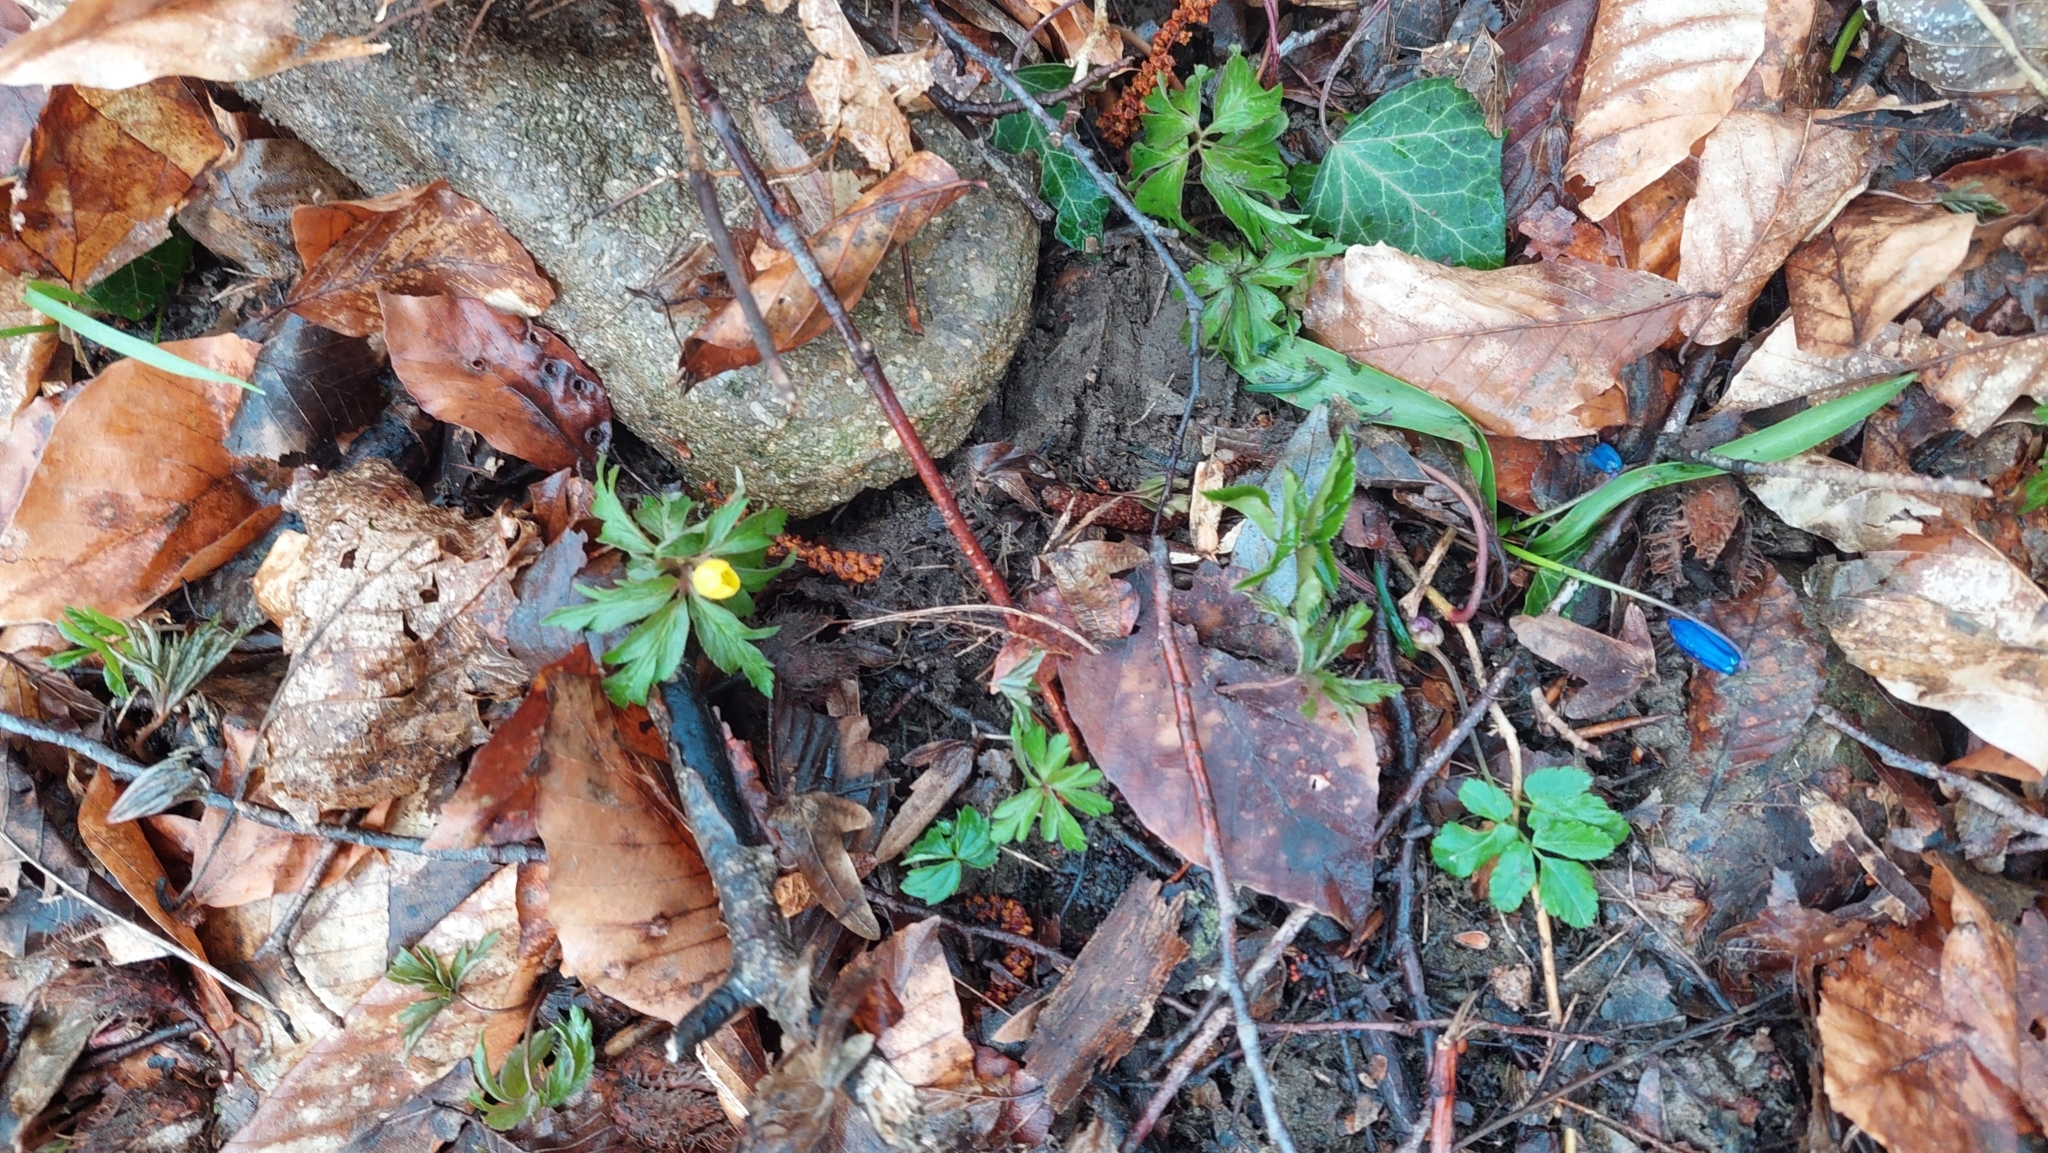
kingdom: Plantae
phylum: Tracheophyta
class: Magnoliopsida
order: Ranunculales
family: Ranunculaceae
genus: Anemone
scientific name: Anemone ranunculoides
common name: Yellow anemone
